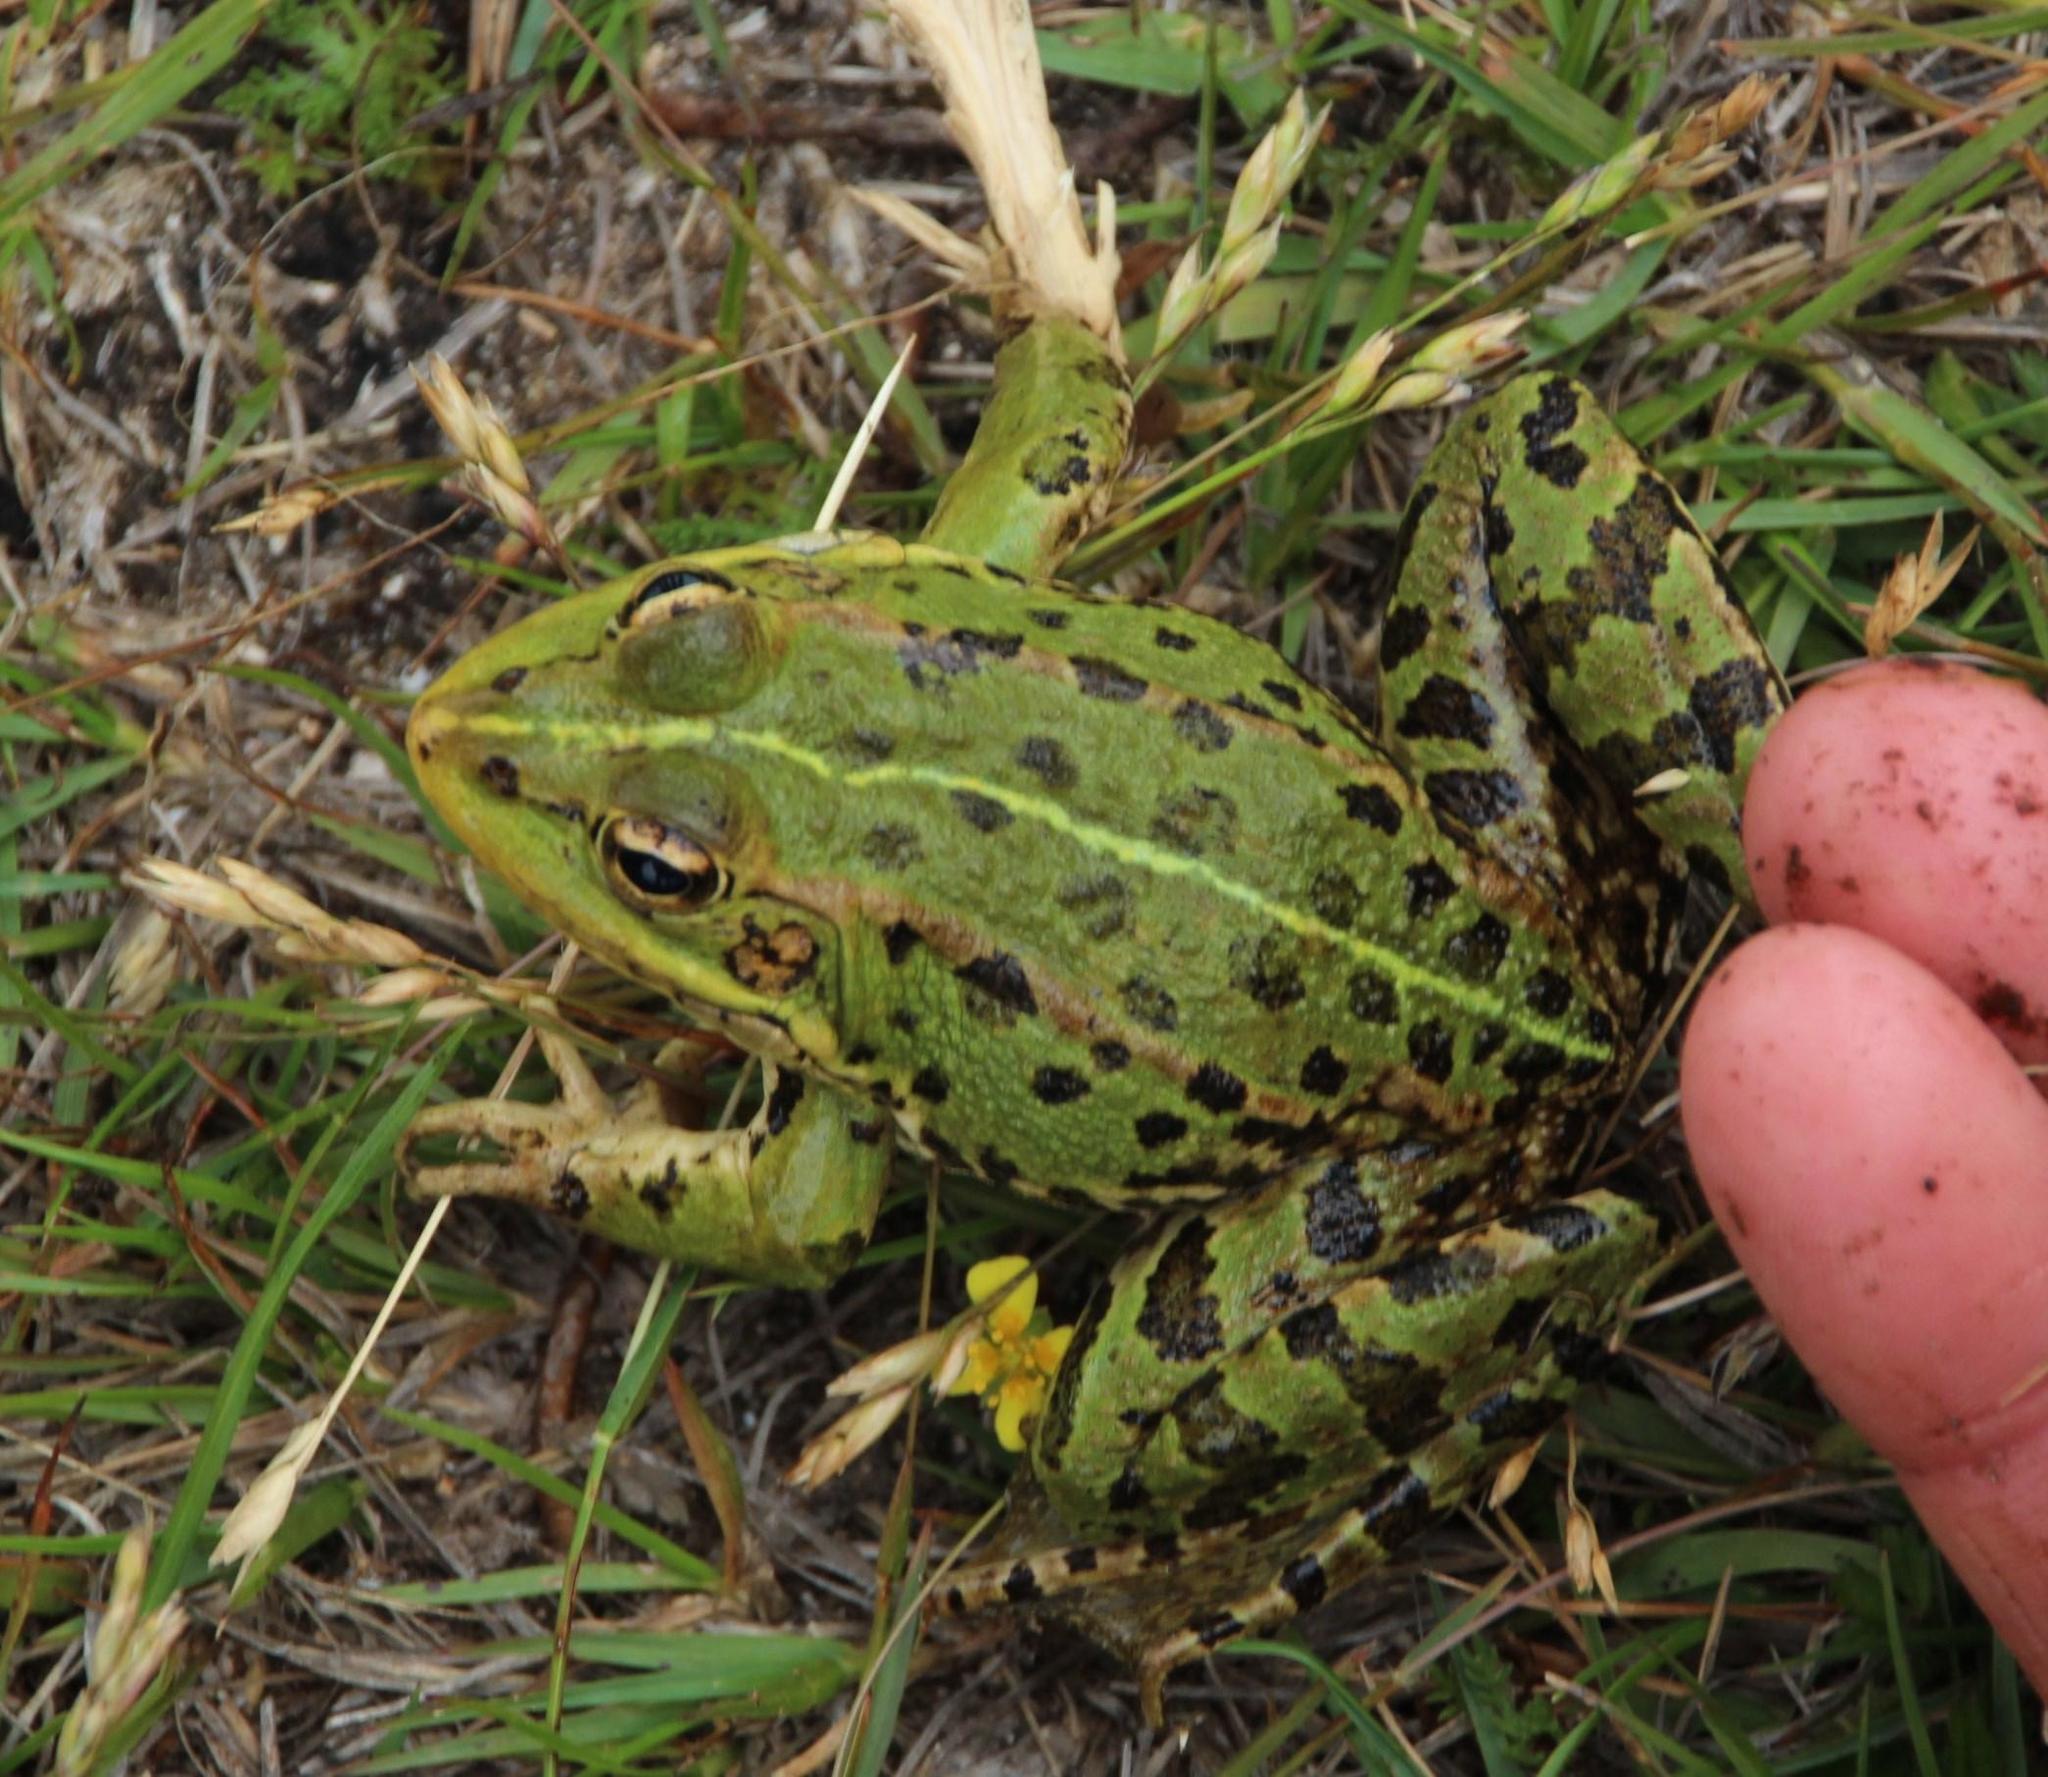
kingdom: Animalia
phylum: Chordata
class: Amphibia
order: Anura
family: Ranidae
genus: Pelophylax
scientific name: Pelophylax perezi
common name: Perez's frog
